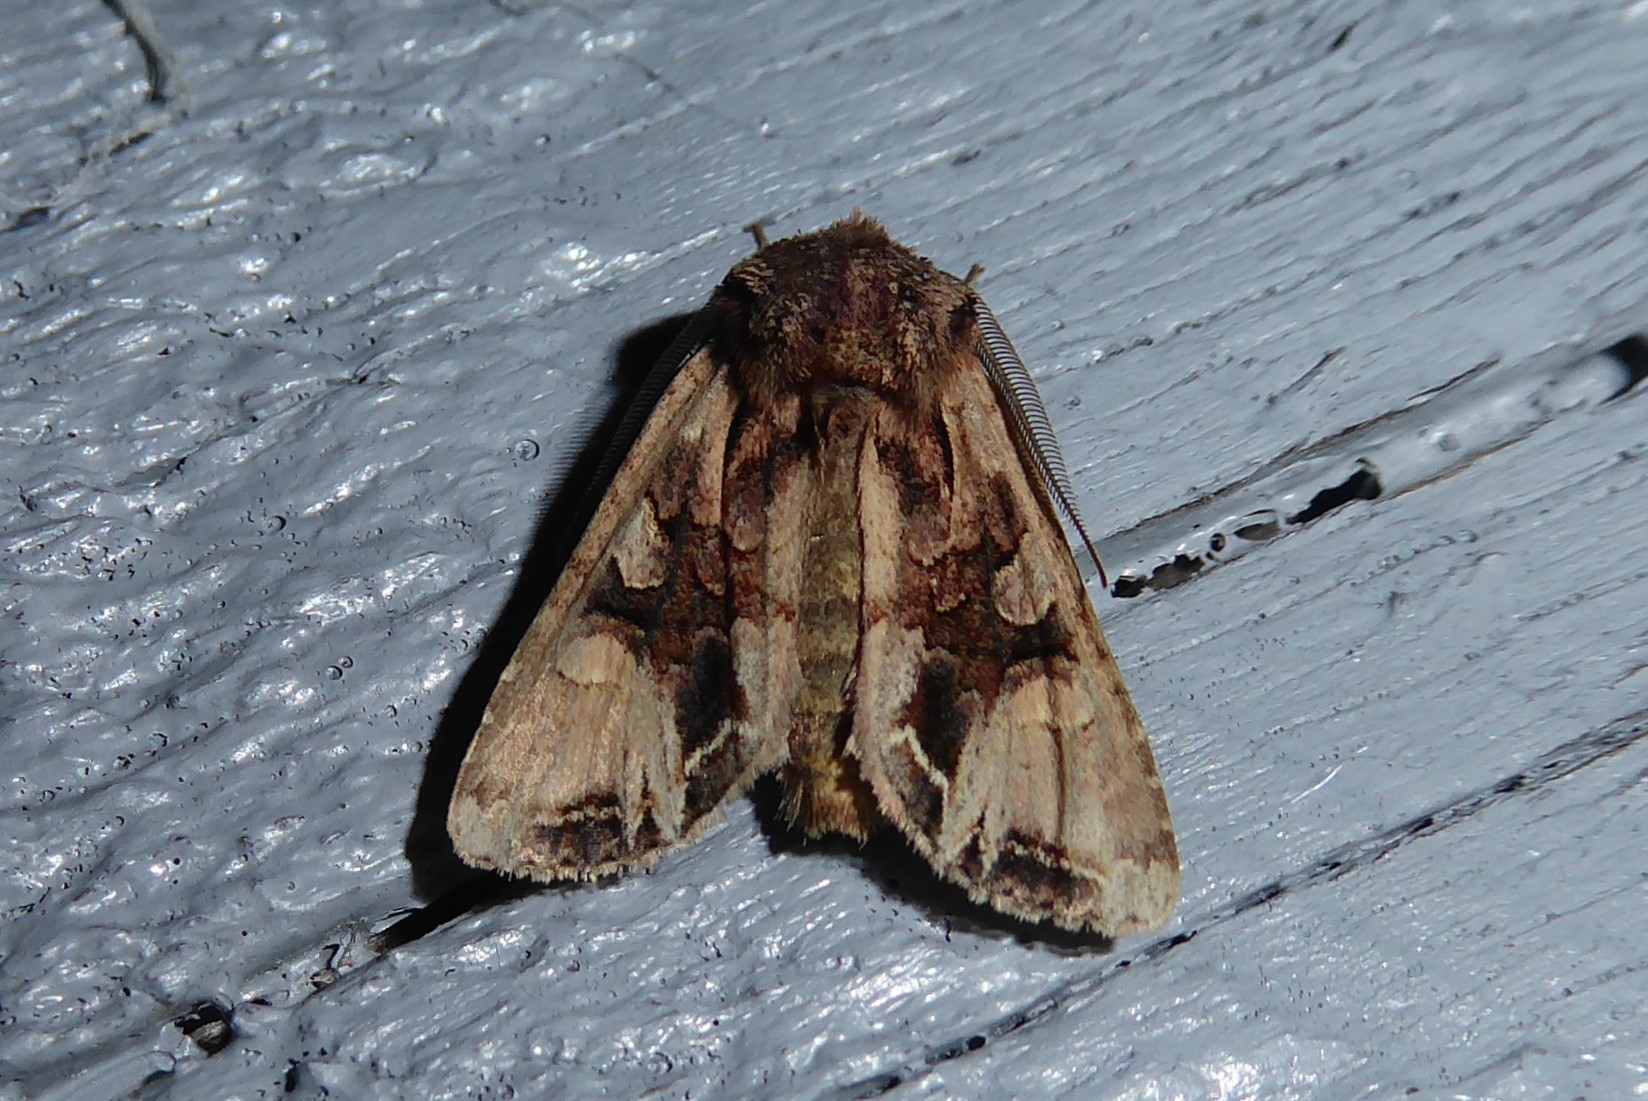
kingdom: Animalia
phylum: Arthropoda
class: Insecta
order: Lepidoptera
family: Noctuidae
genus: Ichneutica
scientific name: Ichneutica
